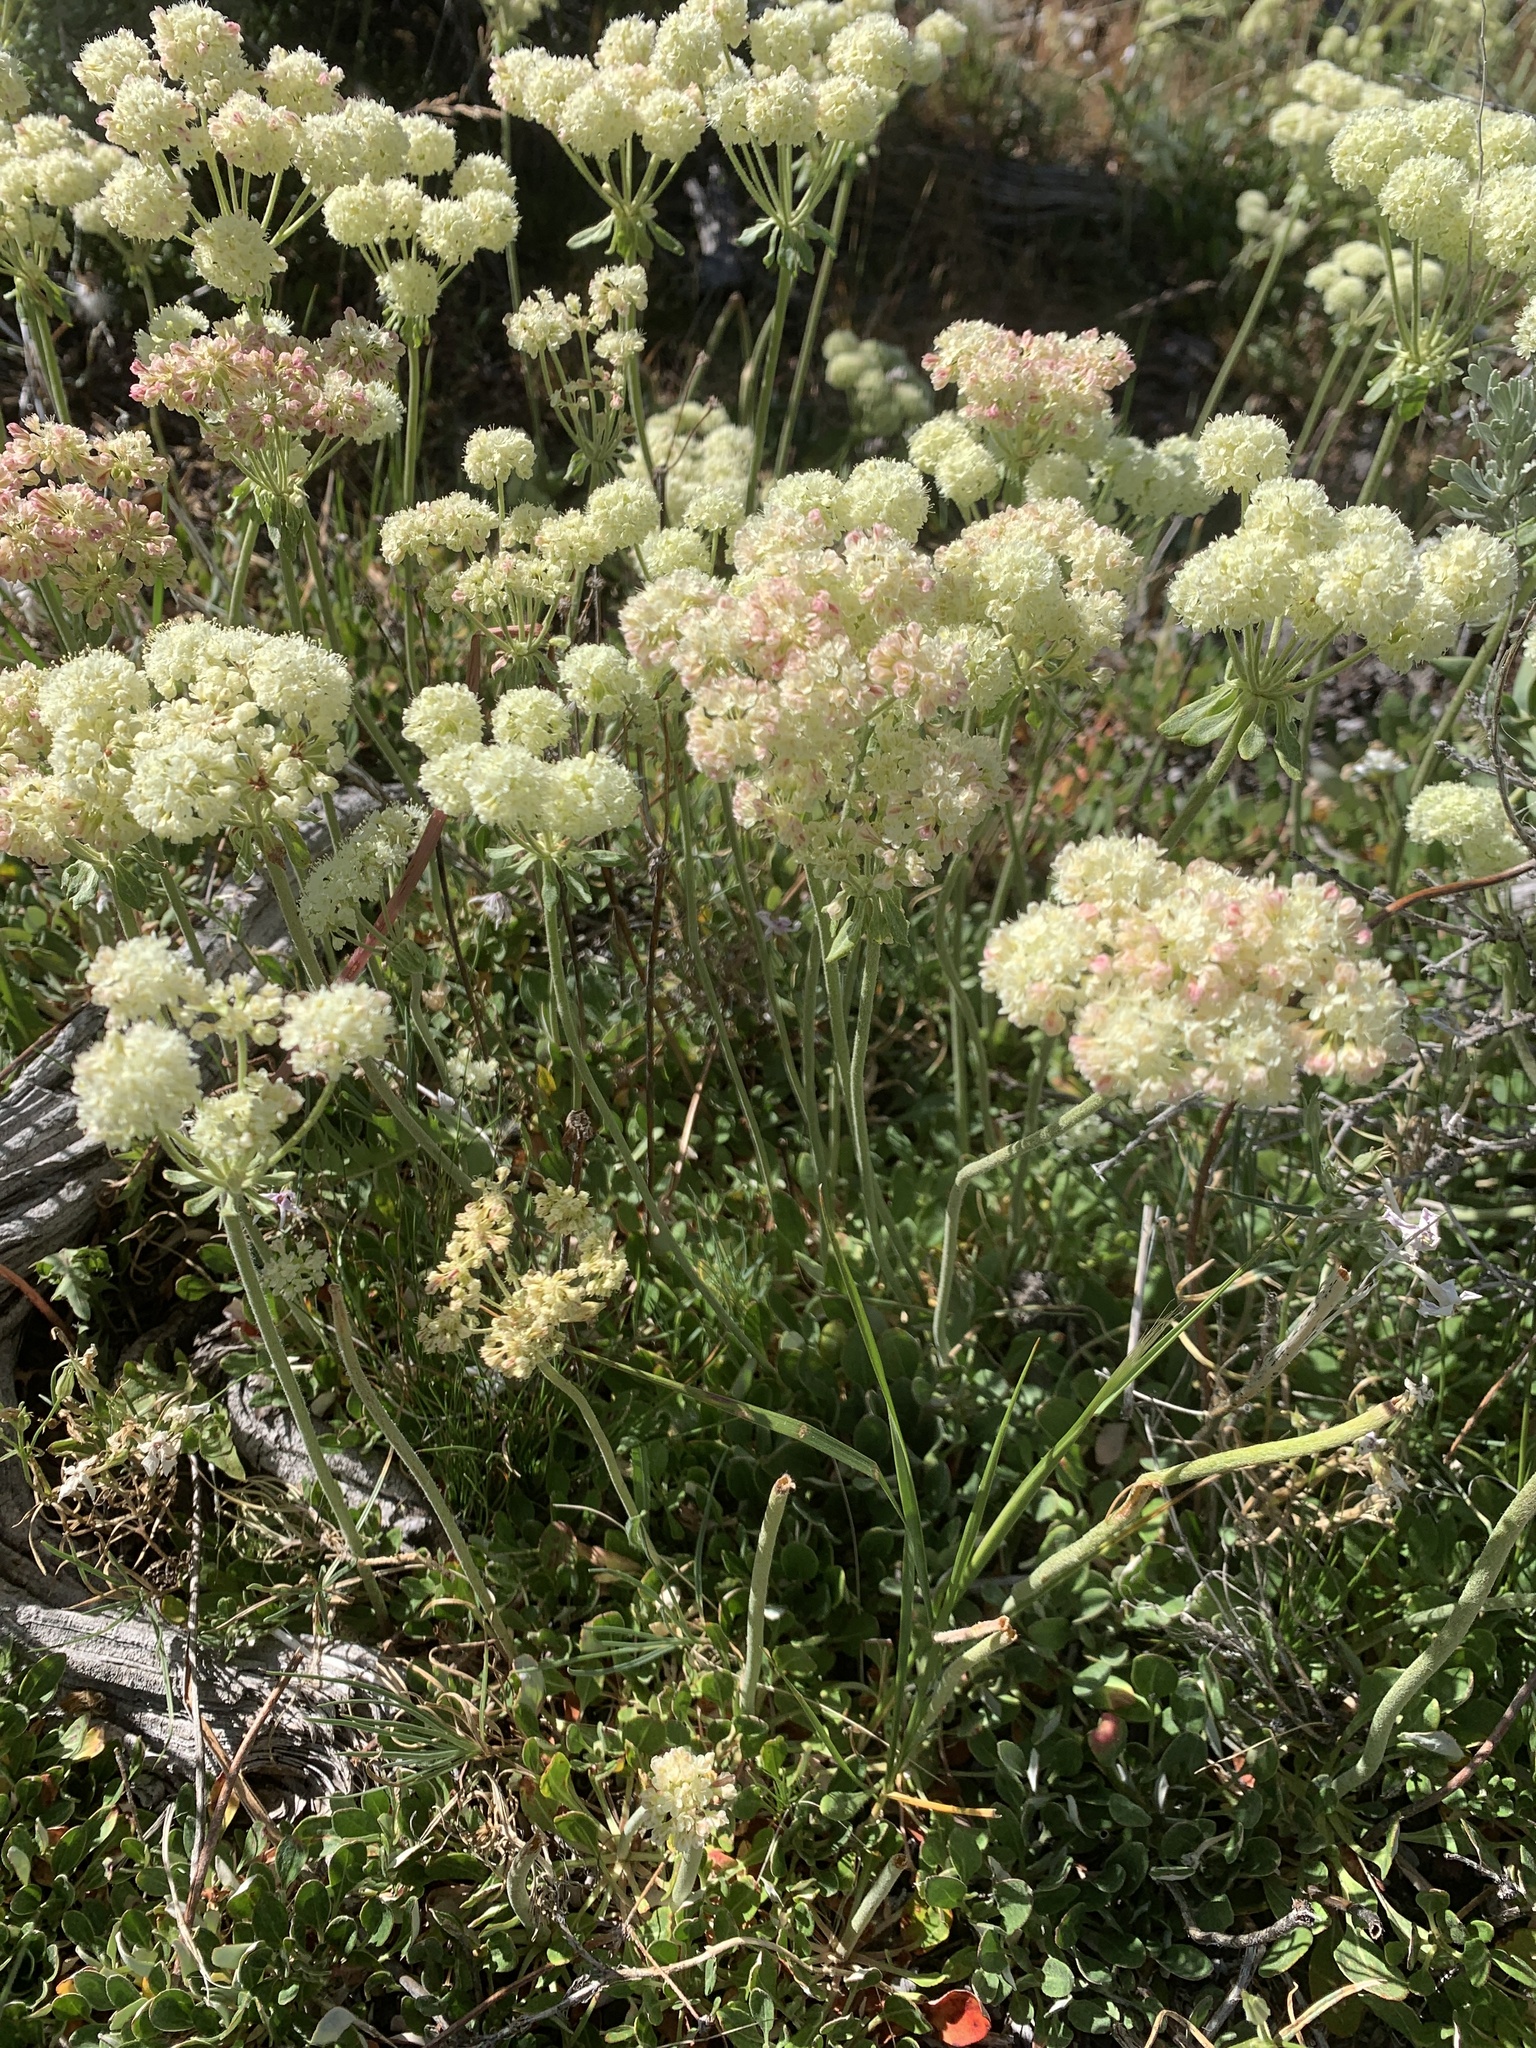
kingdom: Plantae
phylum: Tracheophyta
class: Magnoliopsida
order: Caryophyllales
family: Polygonaceae
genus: Eriogonum
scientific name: Eriogonum umbellatum
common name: Sulfur-buckwheat
